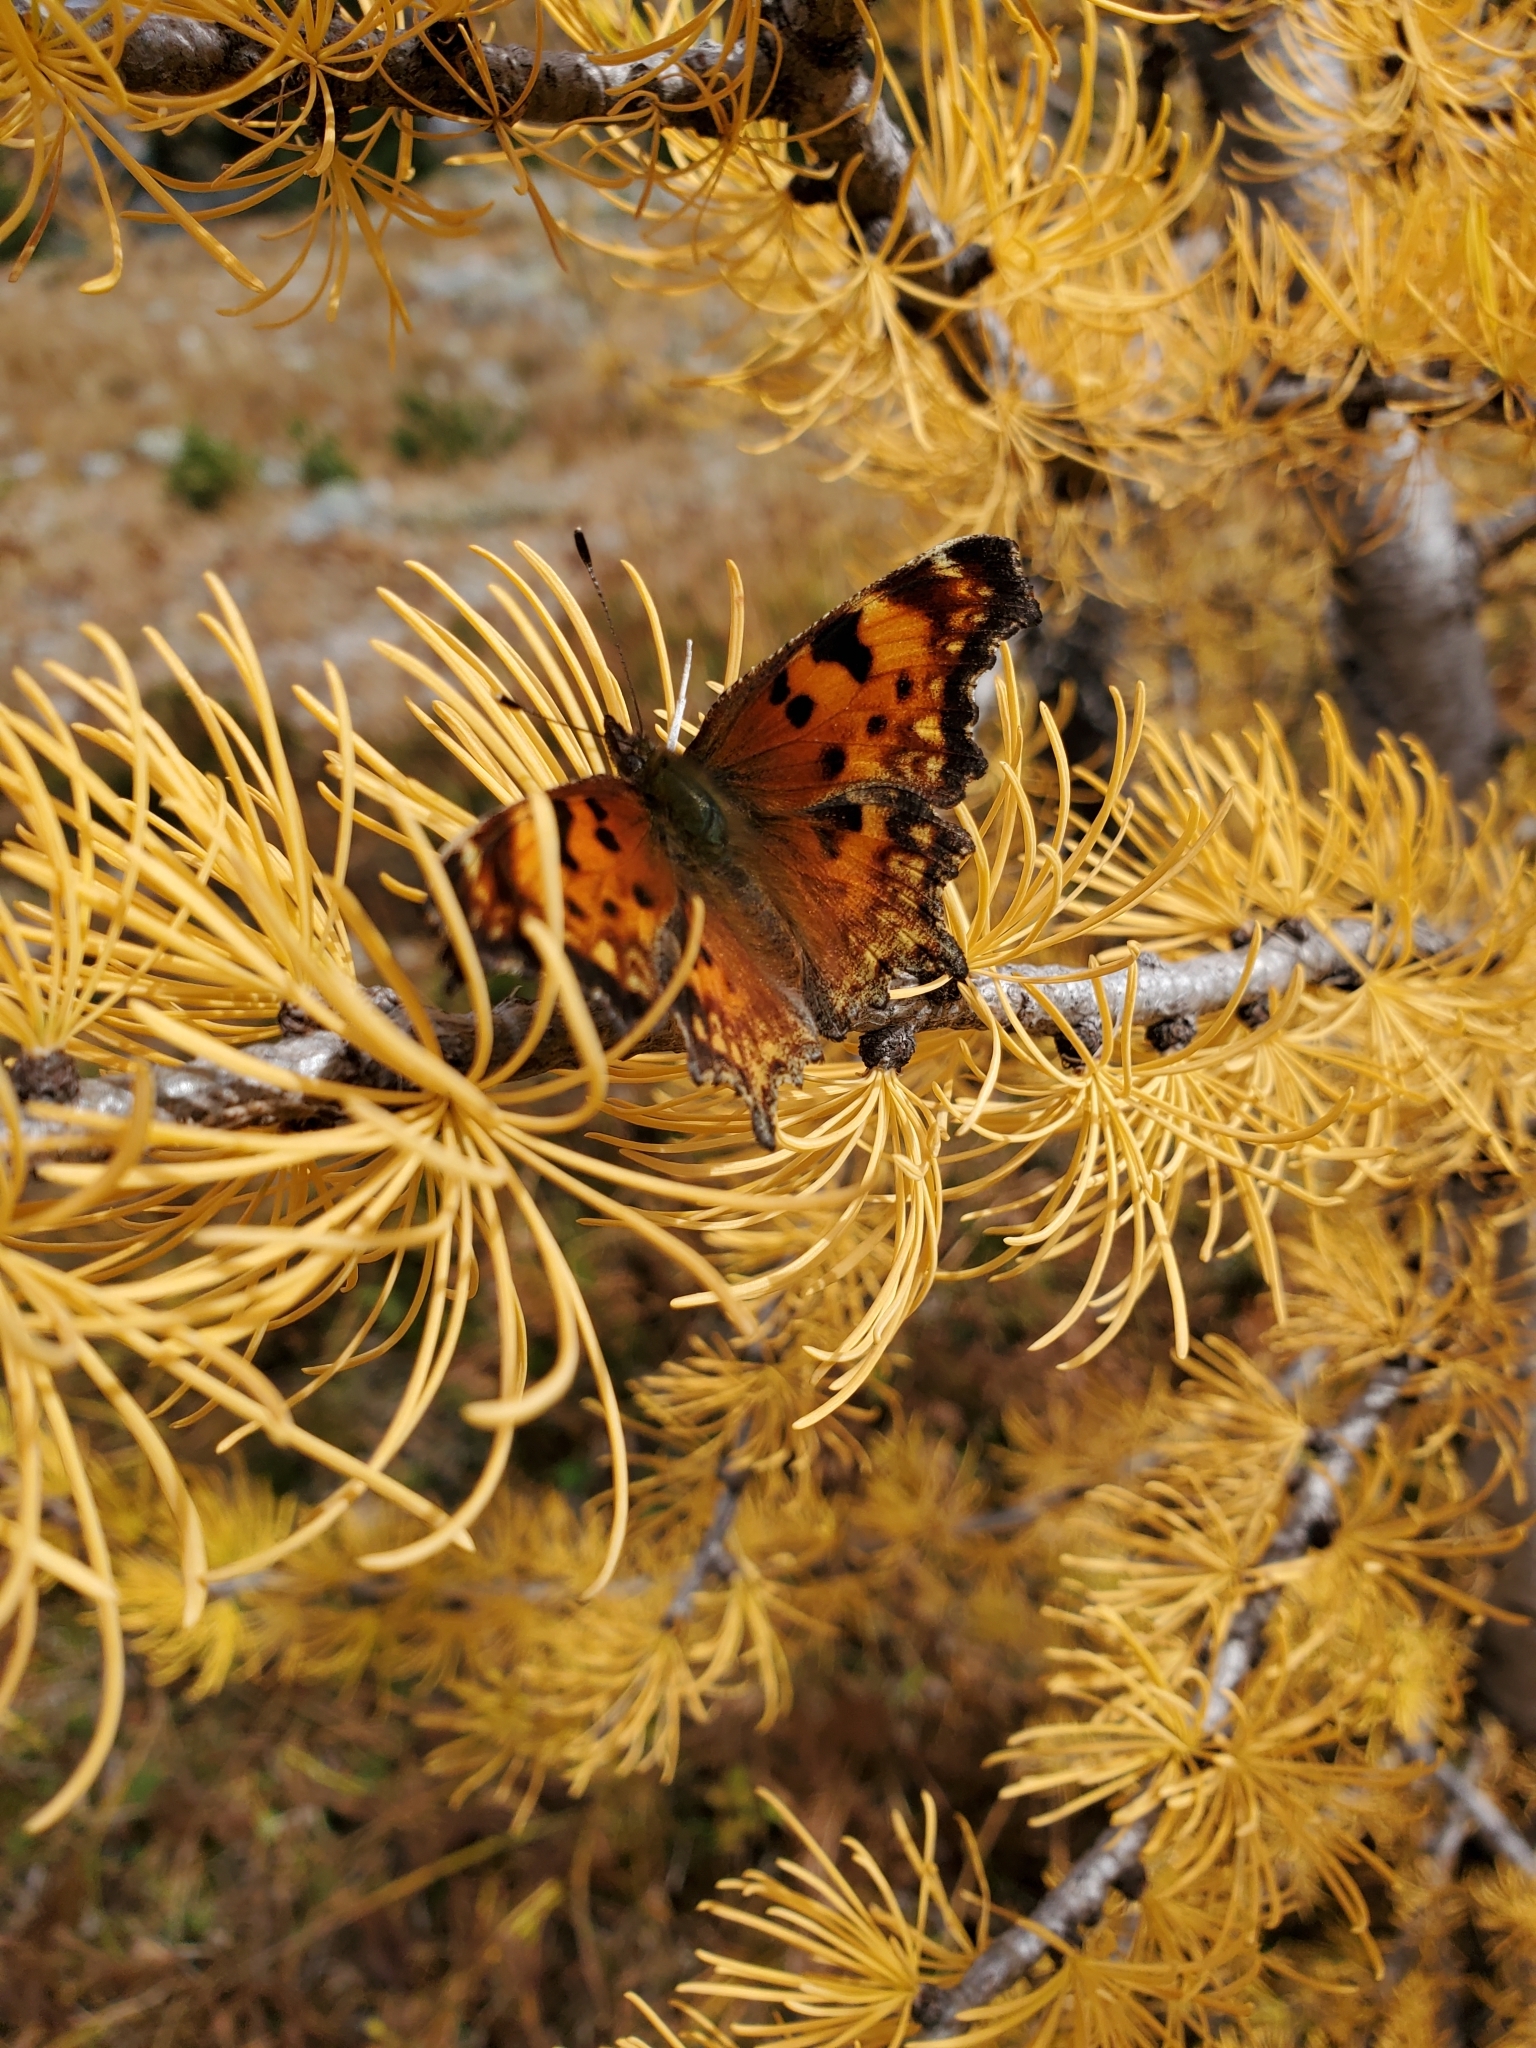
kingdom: Animalia
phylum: Arthropoda
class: Insecta
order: Lepidoptera
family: Nymphalidae
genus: Polygonia
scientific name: Polygonia gracilis
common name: Hoary comma
